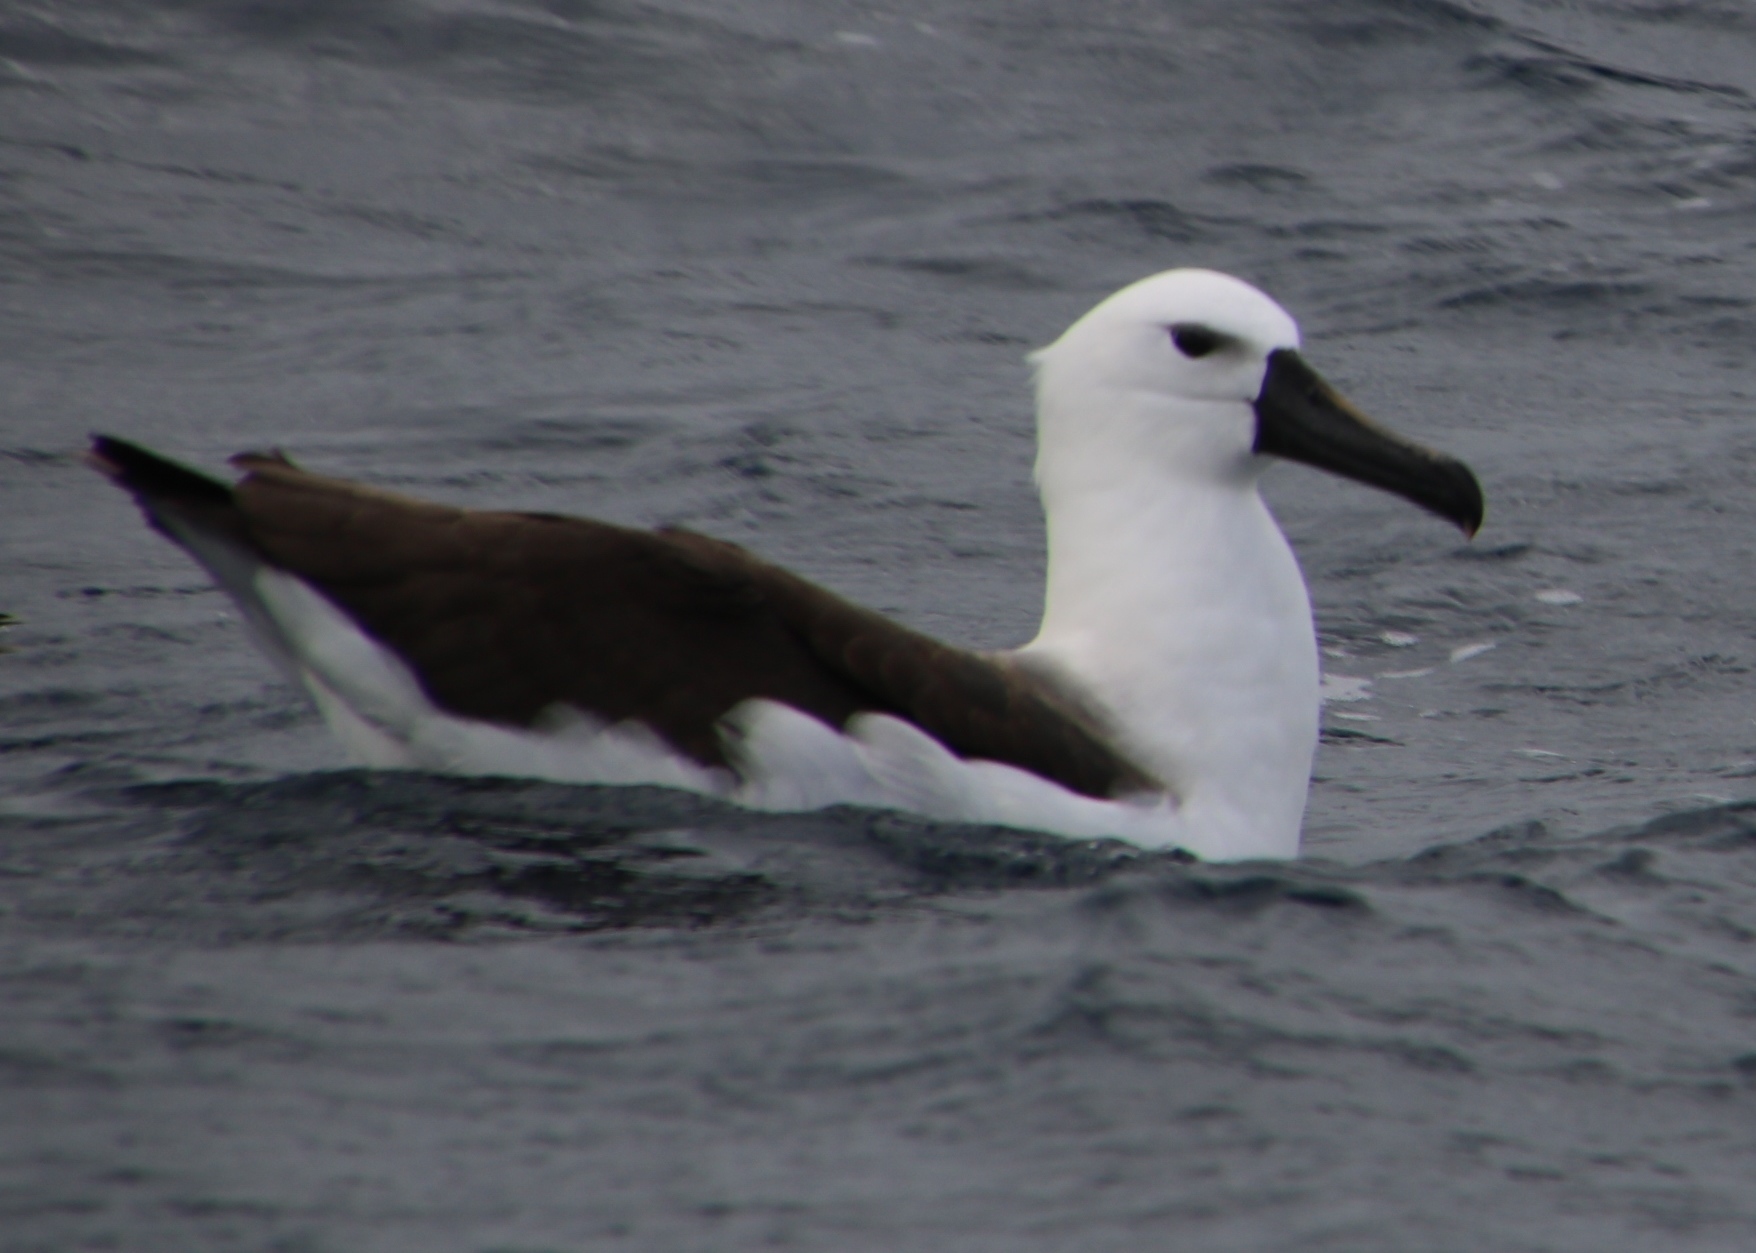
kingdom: Animalia
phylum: Chordata
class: Aves
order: Procellariiformes
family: Diomedeidae
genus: Thalassarche
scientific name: Thalassarche chlororhynchos
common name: Atlantic yellow-nosed albatross
